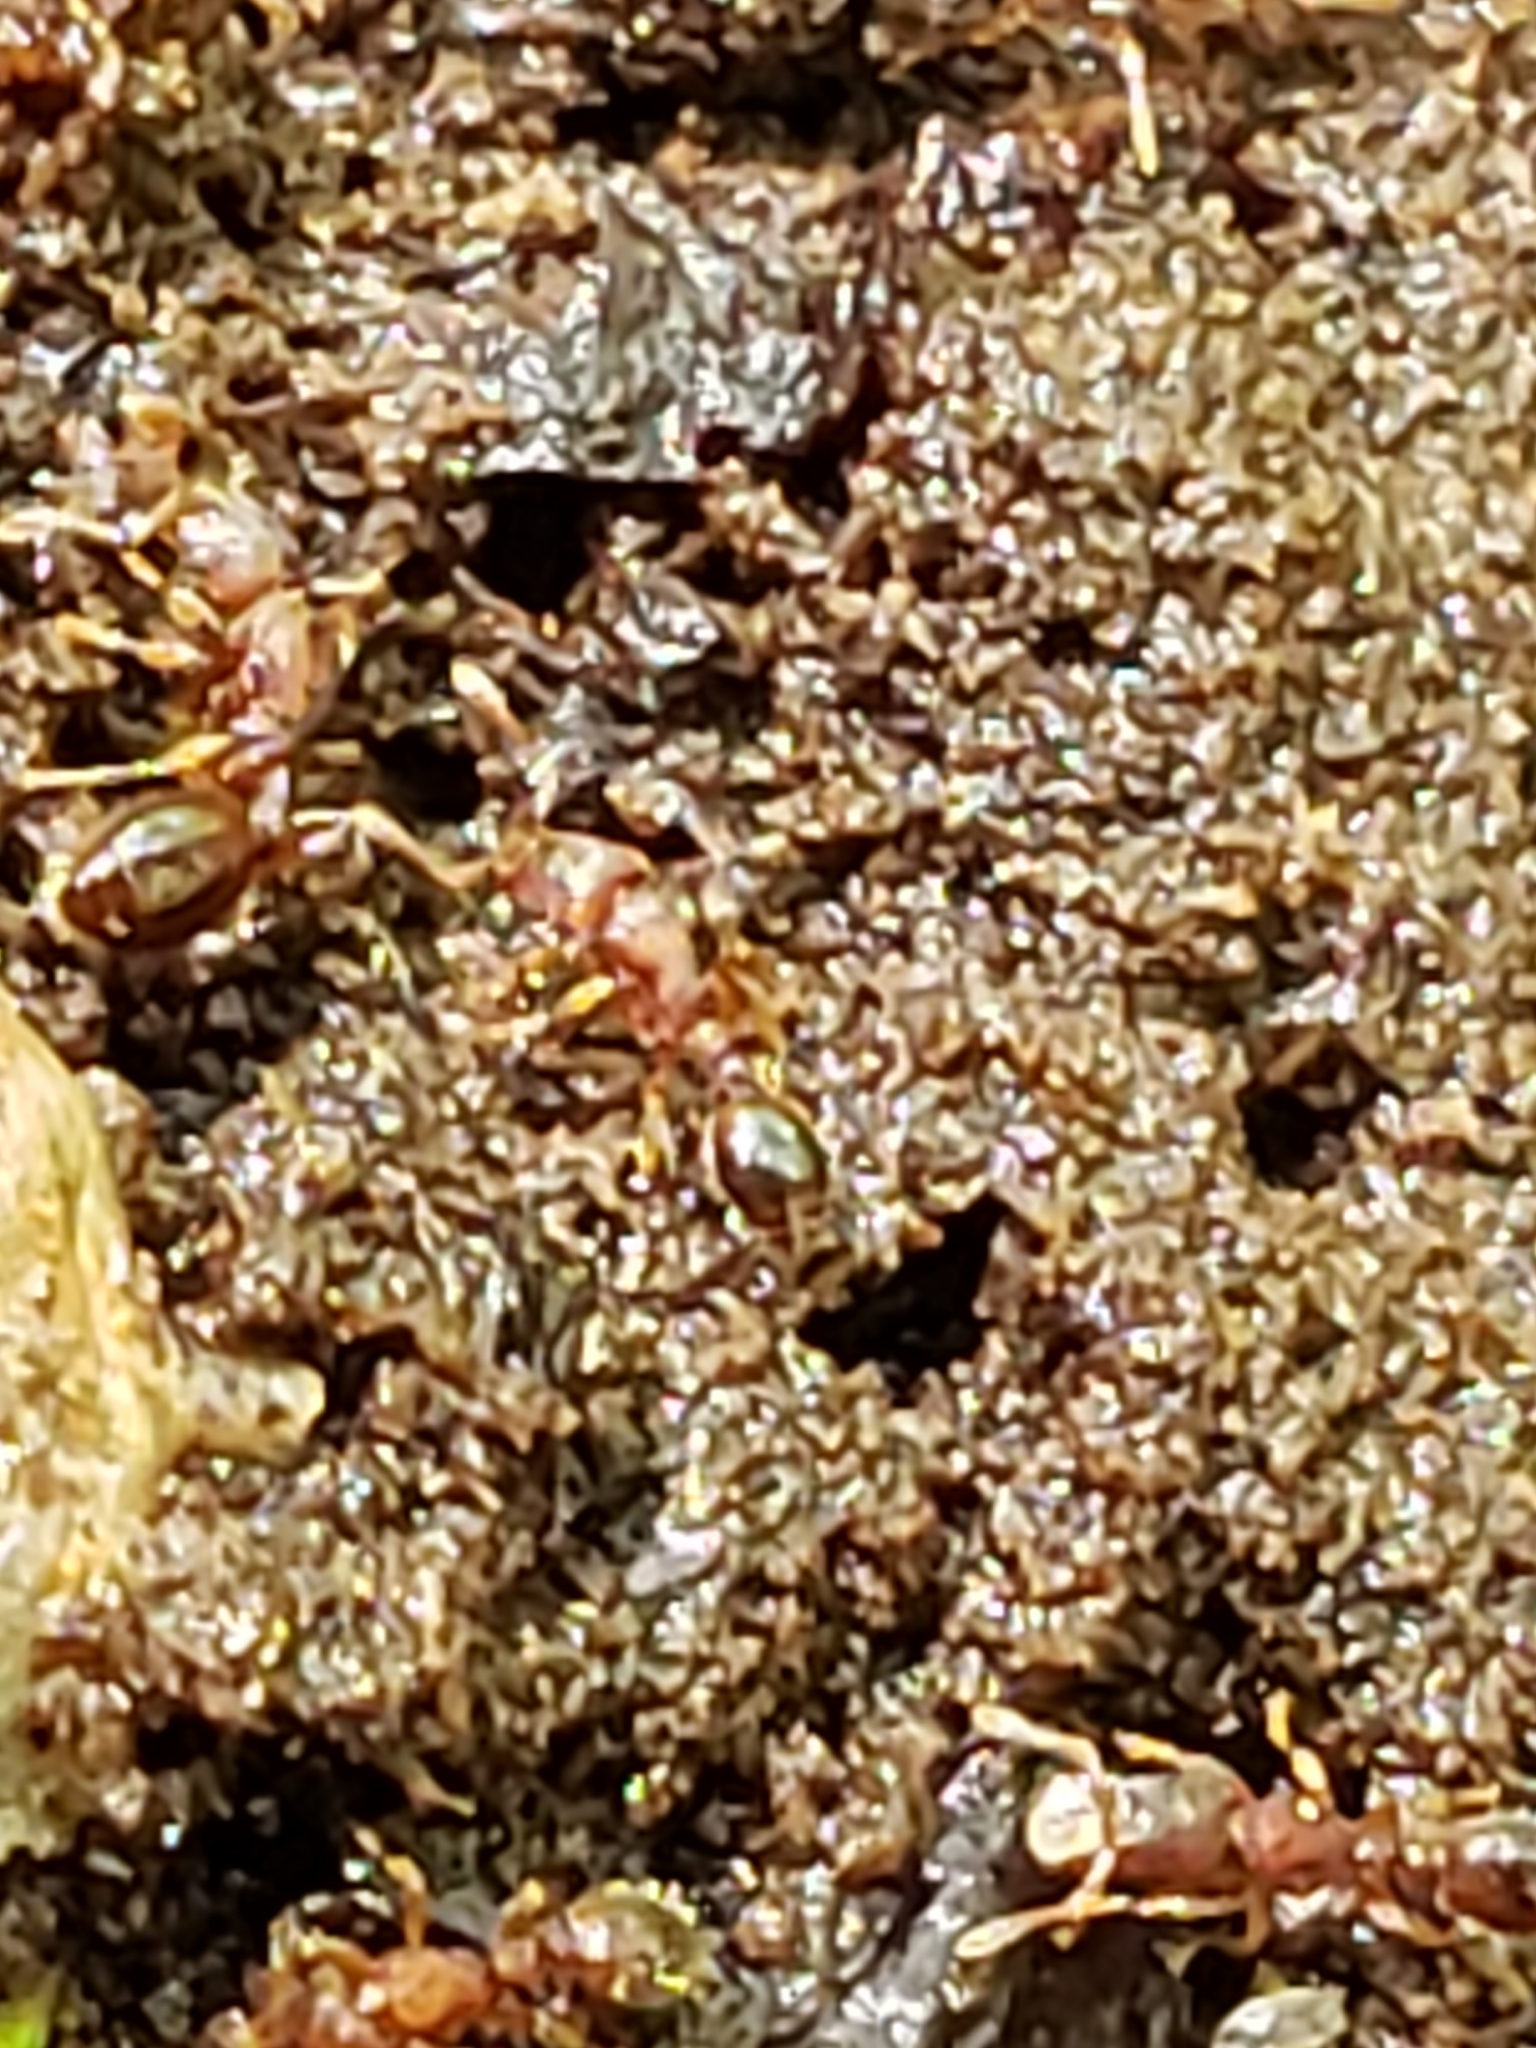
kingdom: Animalia
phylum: Arthropoda
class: Insecta
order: Hymenoptera
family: Formicidae
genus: Vollenhovia
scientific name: Vollenhovia emeryi
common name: Ant
